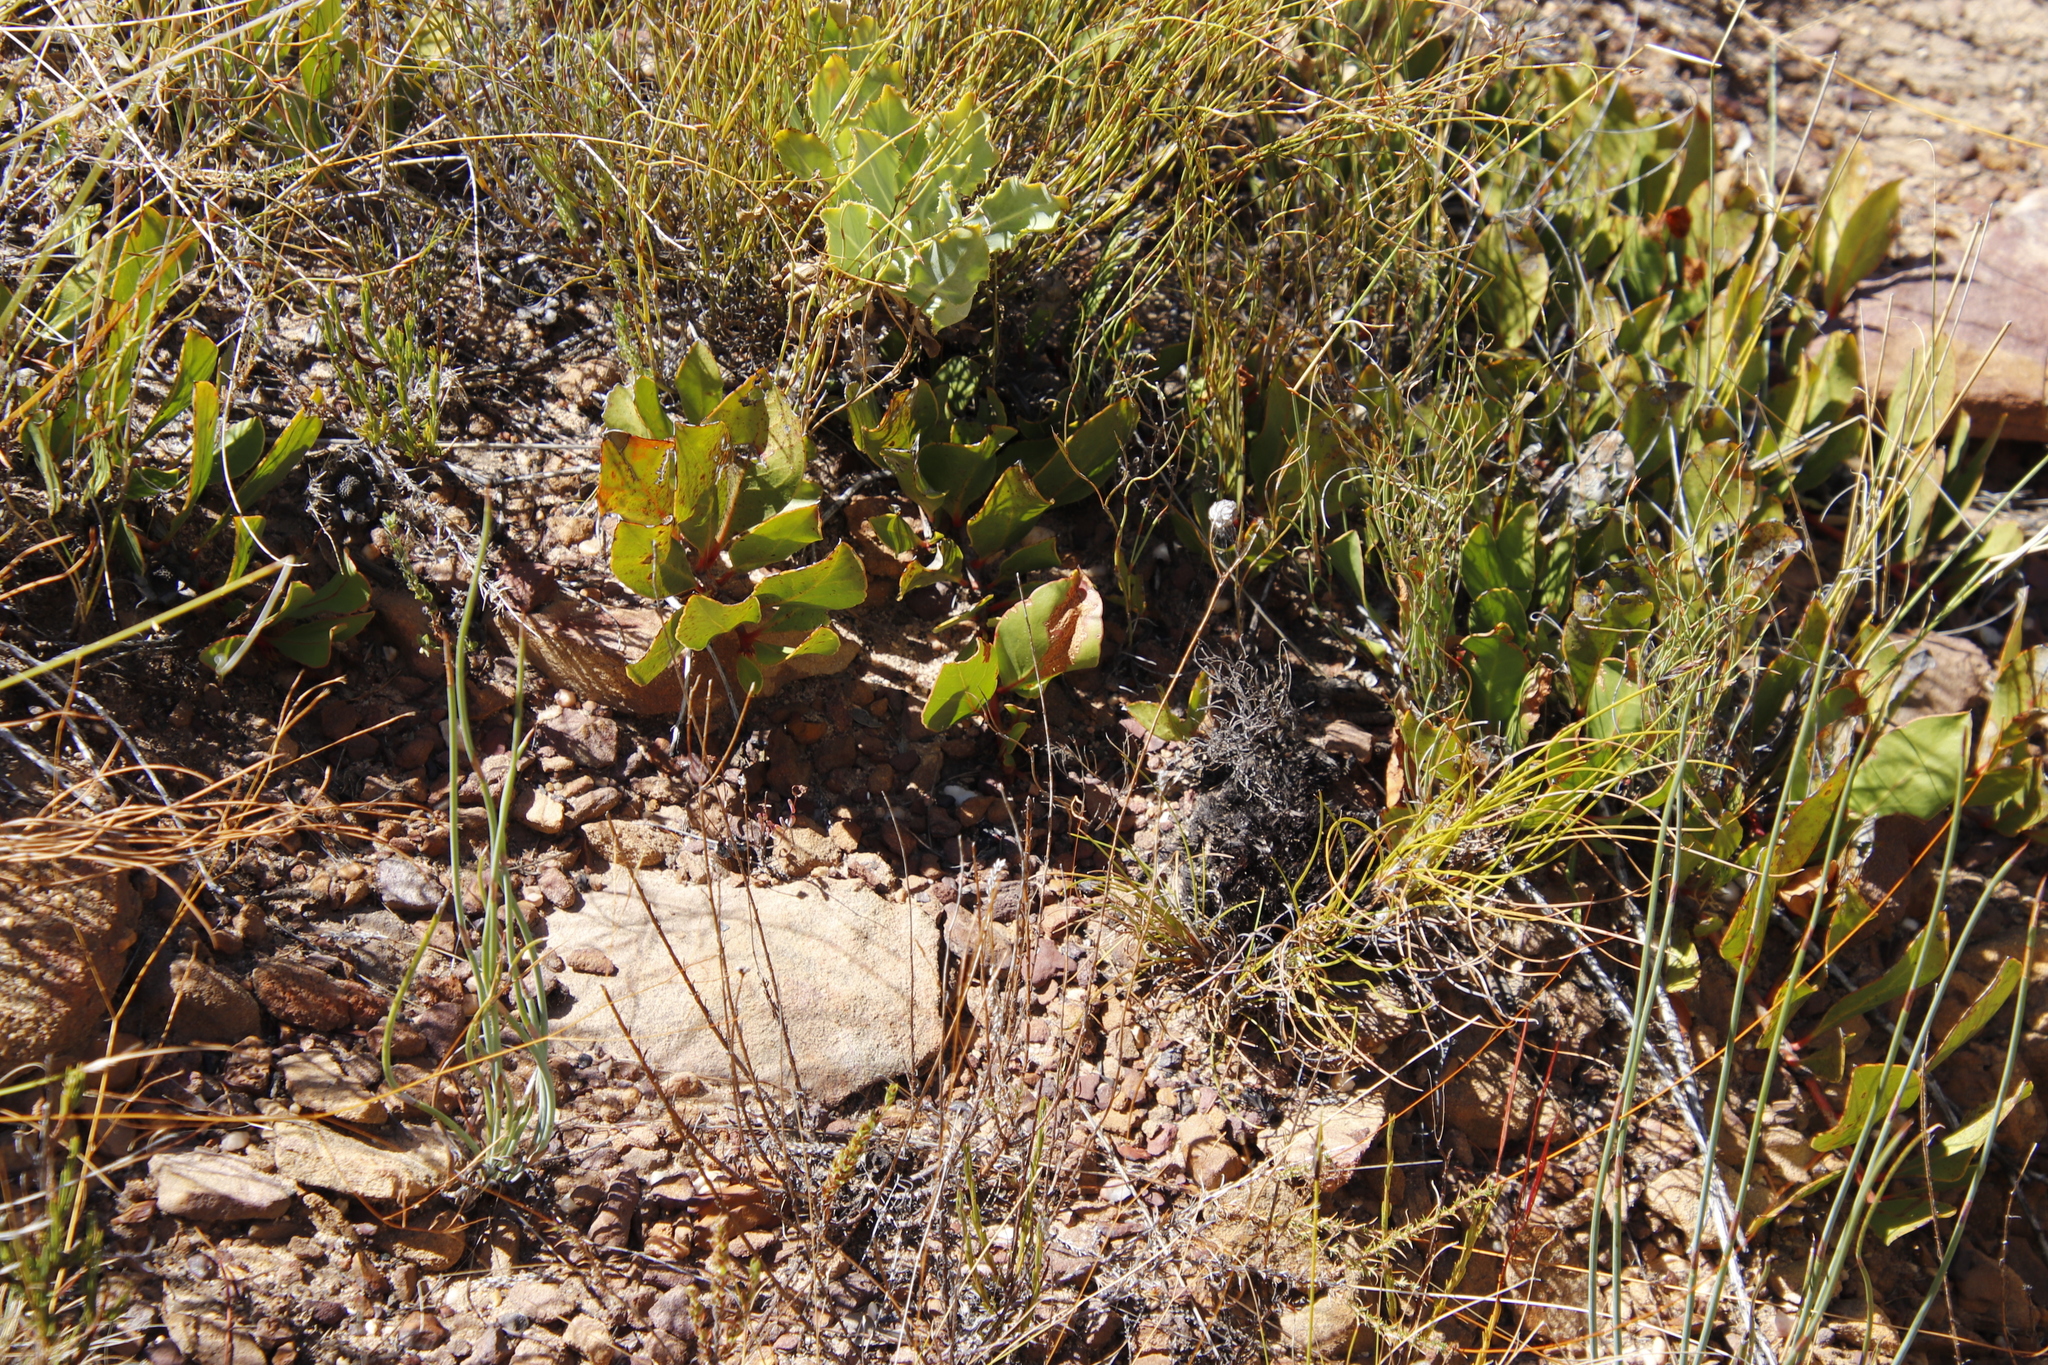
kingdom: Plantae
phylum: Tracheophyta
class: Magnoliopsida
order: Proteales
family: Proteaceae
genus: Protea
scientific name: Protea acaulos
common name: Common ground sugarbush
